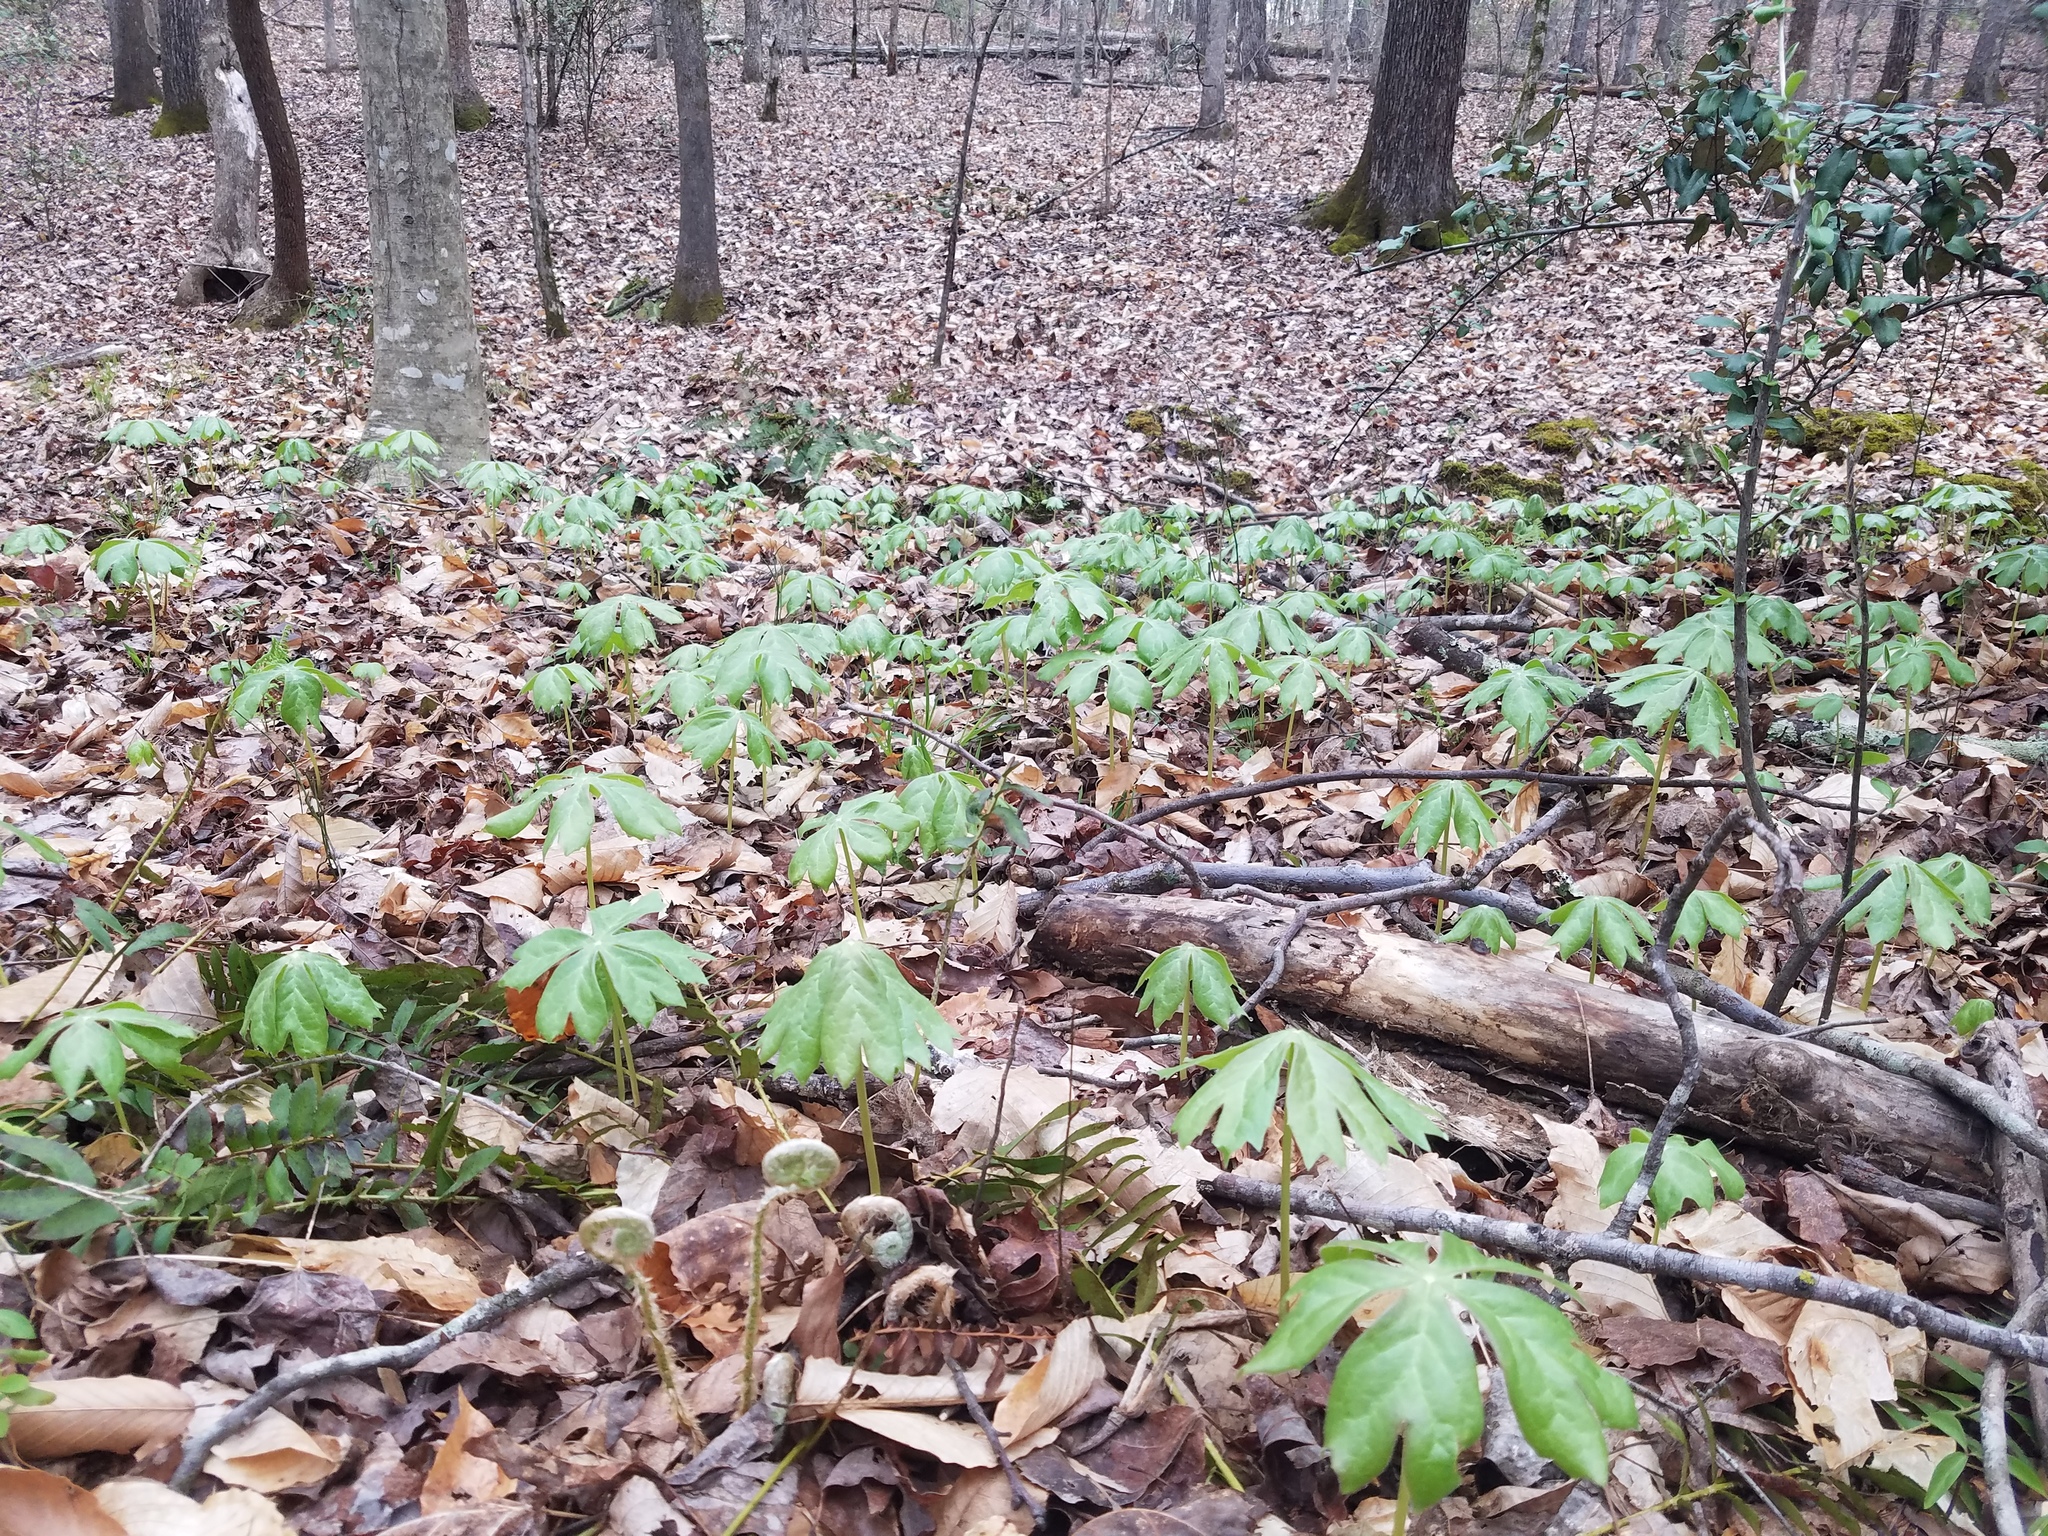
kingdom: Plantae
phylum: Tracheophyta
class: Magnoliopsida
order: Ranunculales
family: Berberidaceae
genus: Podophyllum
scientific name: Podophyllum peltatum
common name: Wild mandrake
